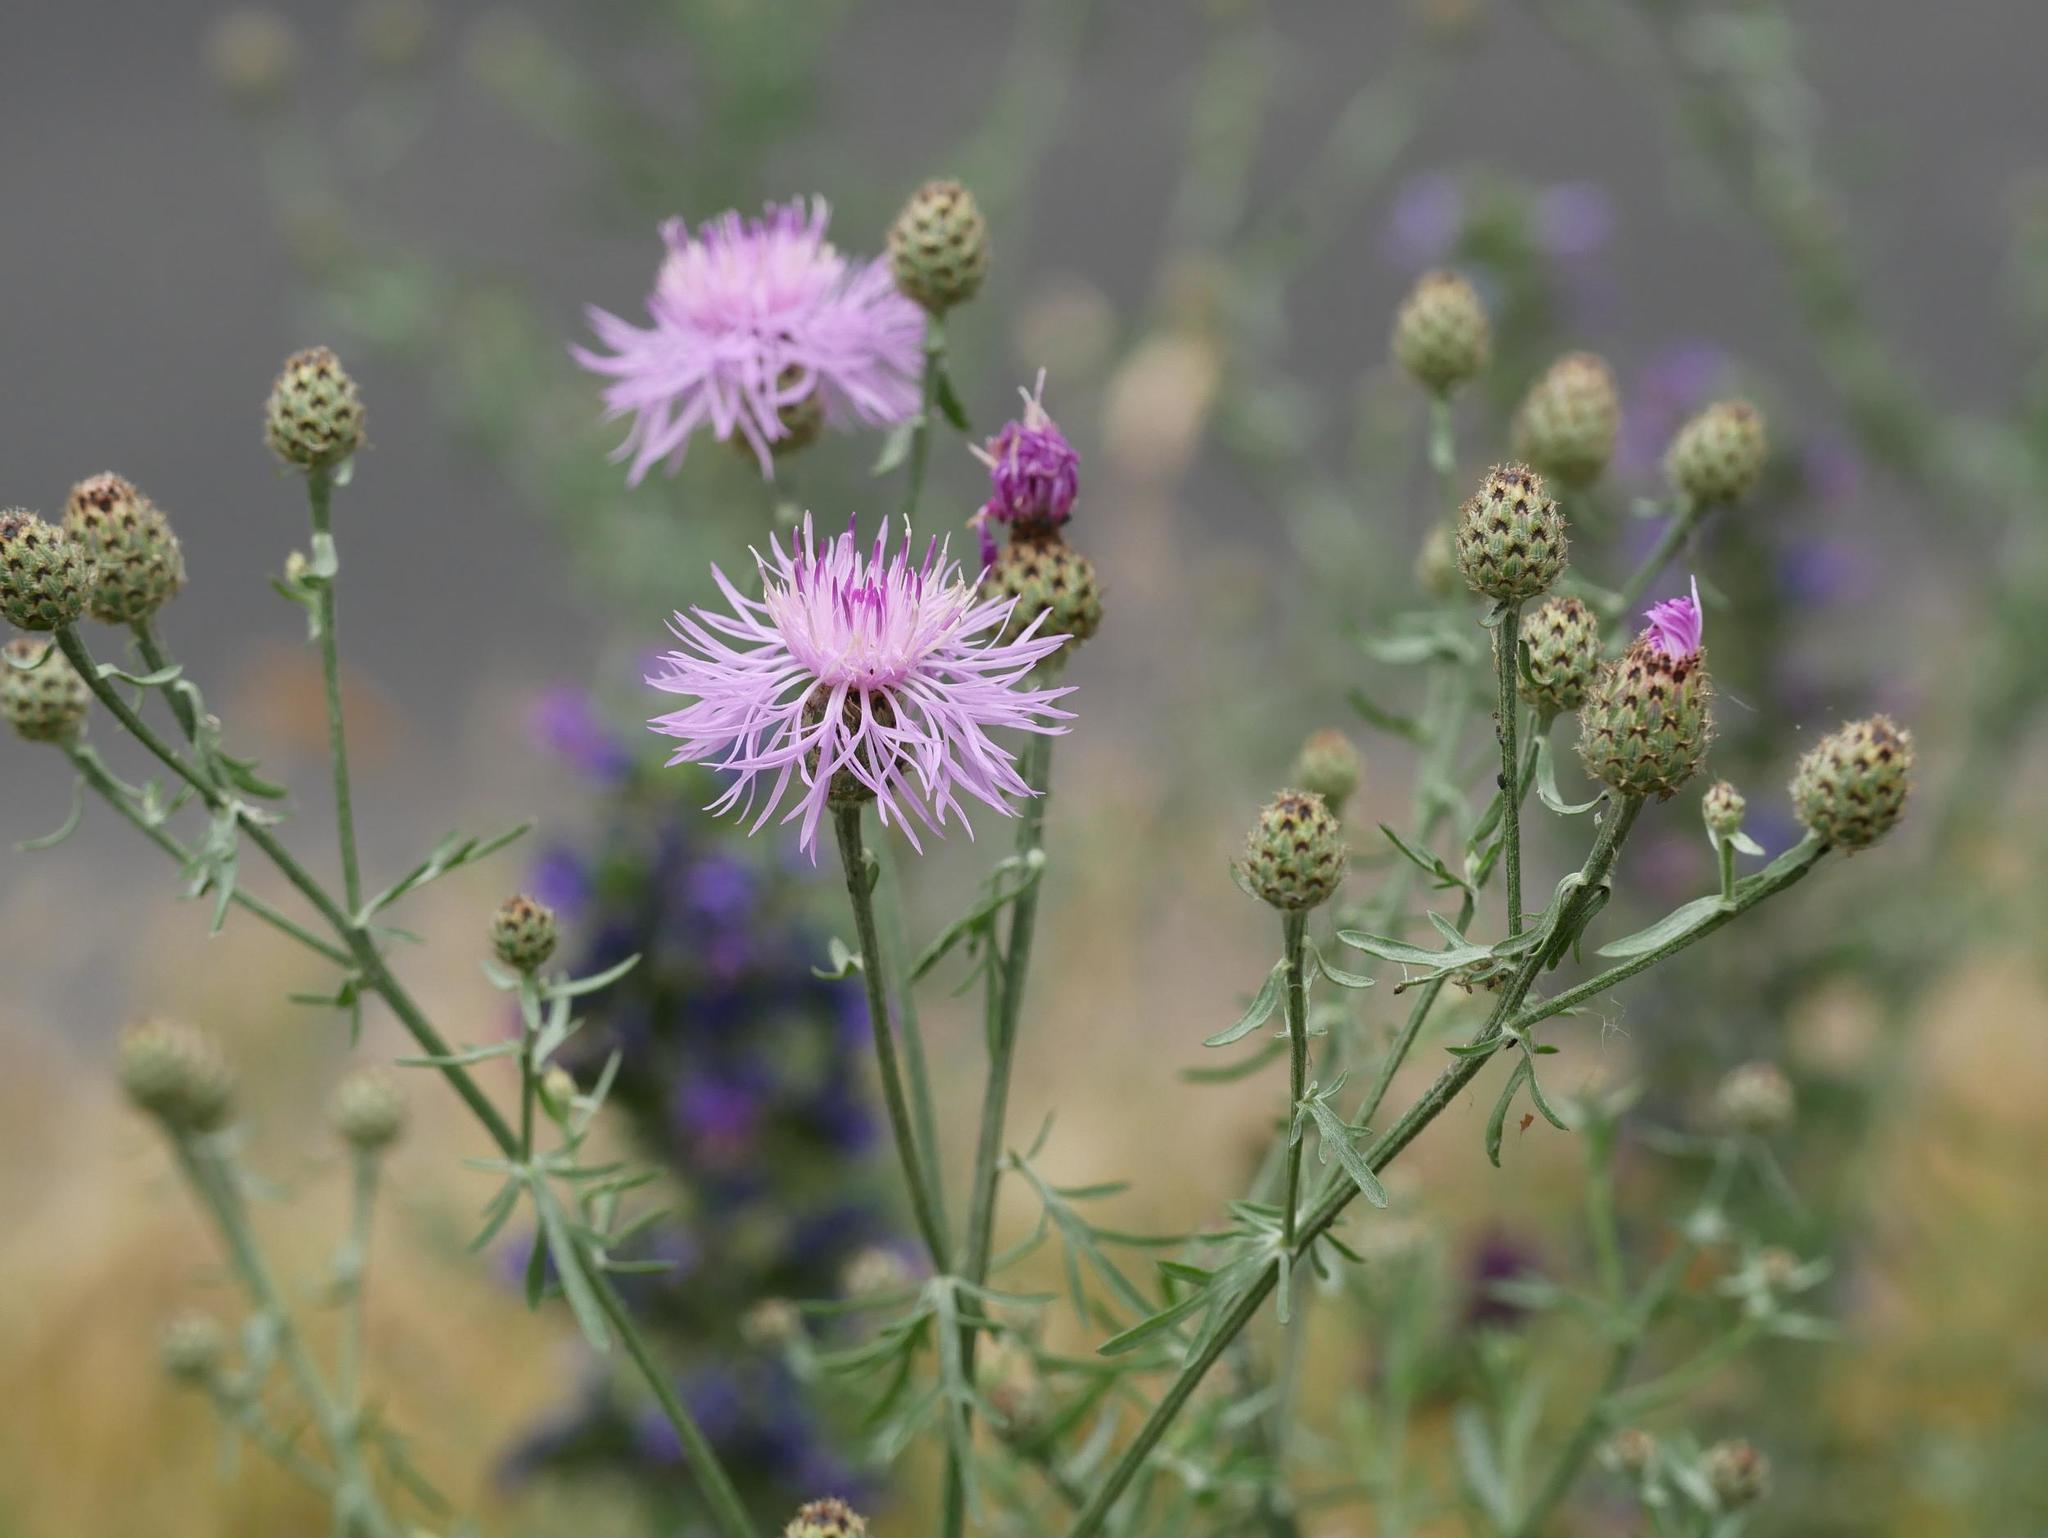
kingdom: Plantae
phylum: Tracheophyta
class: Magnoliopsida
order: Asterales
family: Asteraceae
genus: Centaurea
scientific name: Centaurea stoebe
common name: Spotted knapweed
